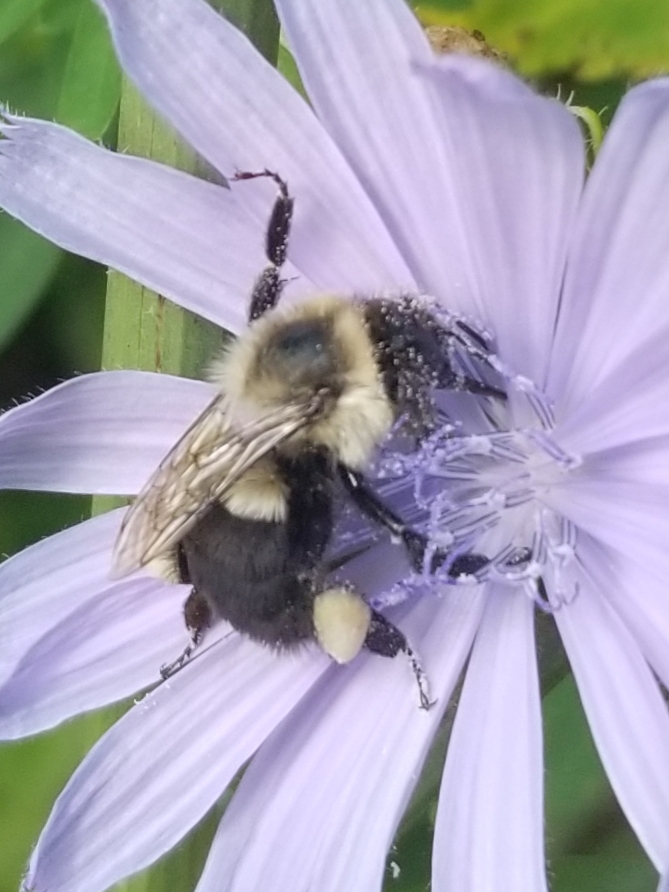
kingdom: Animalia
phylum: Arthropoda
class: Insecta
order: Hymenoptera
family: Apidae
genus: Bombus
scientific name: Bombus impatiens
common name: Common eastern bumble bee
